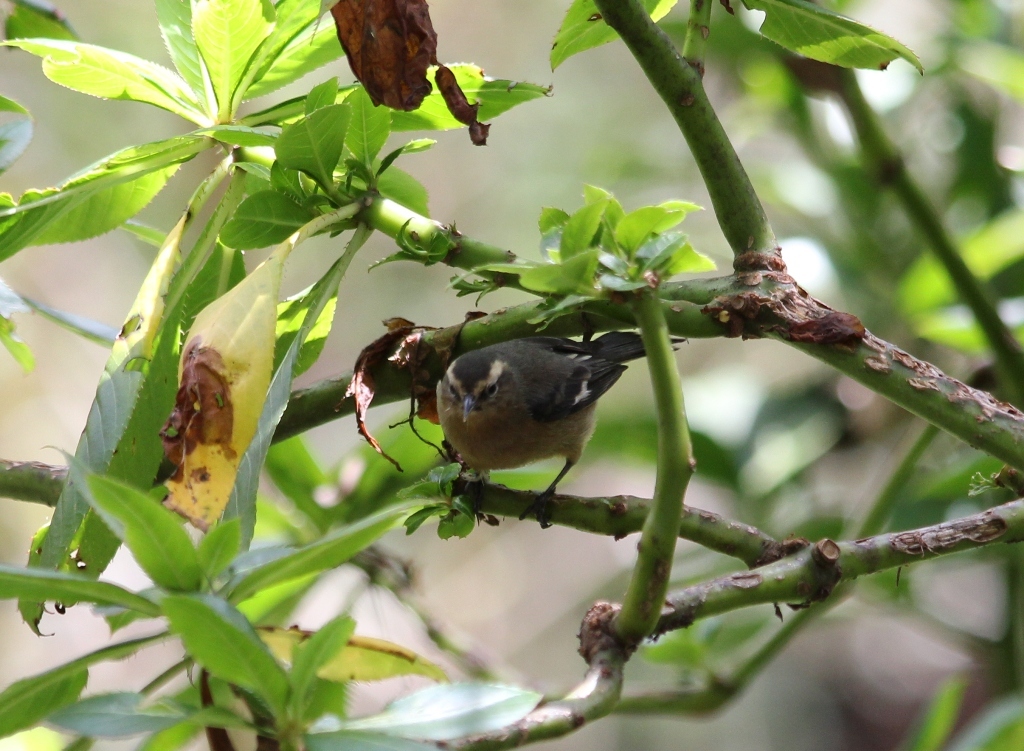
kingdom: Animalia
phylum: Chordata
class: Aves
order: Passeriformes
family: Thraupidae
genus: Conirostrum
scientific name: Conirostrum cinereum
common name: Cinereous conebill
